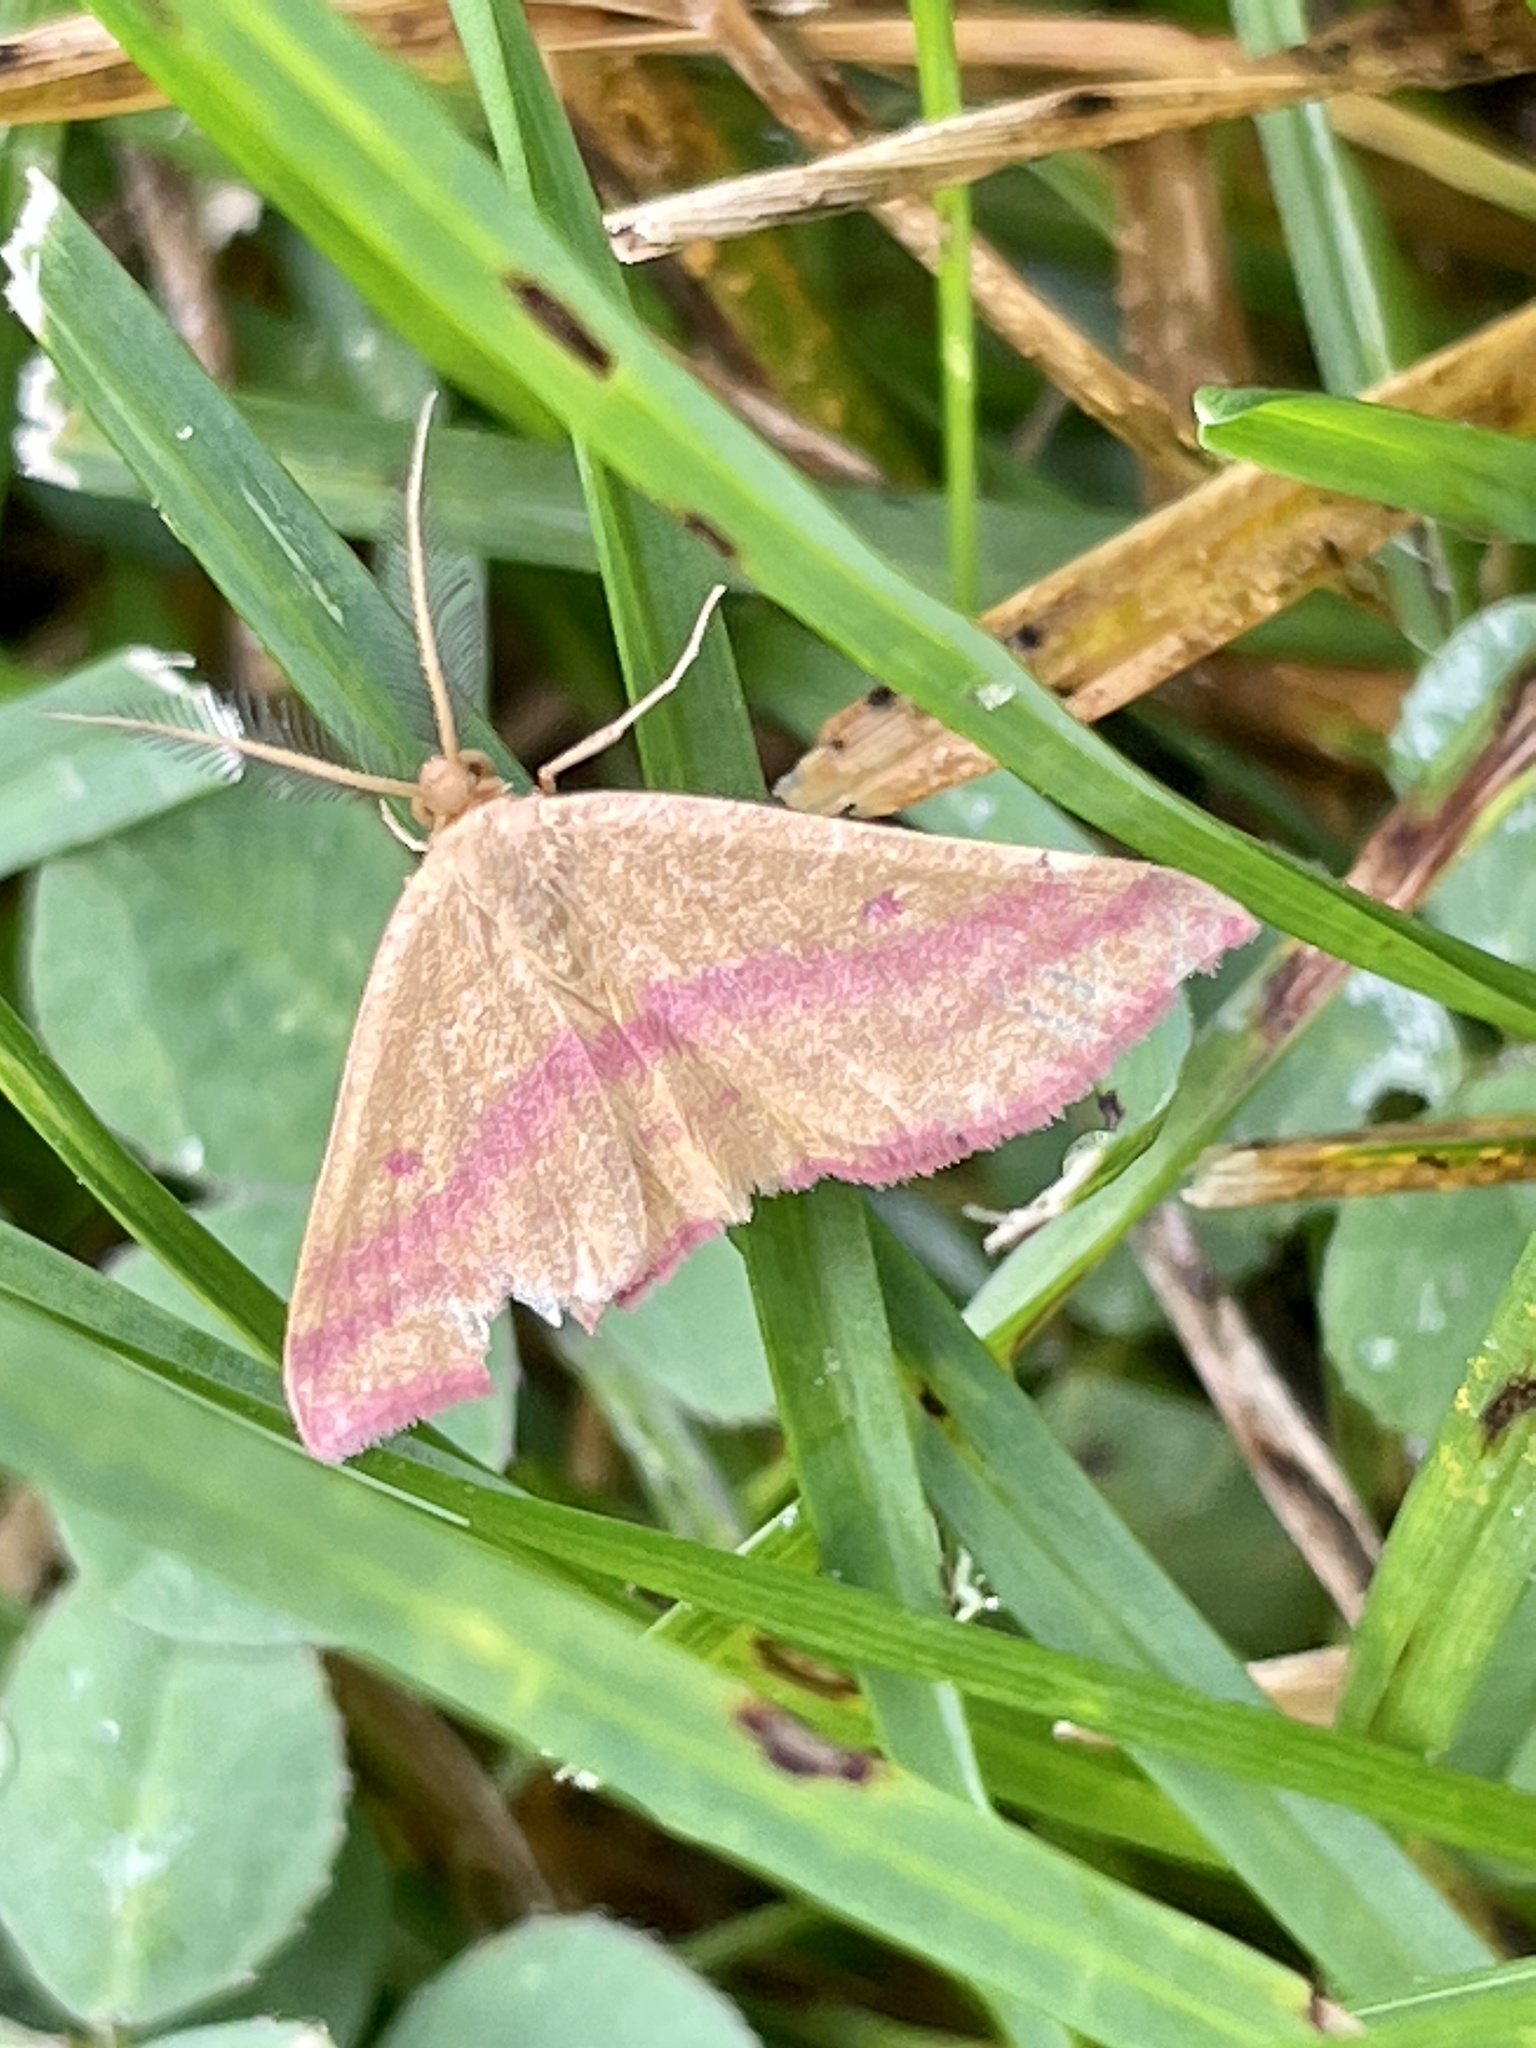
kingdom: Animalia
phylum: Arthropoda
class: Insecta
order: Lepidoptera
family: Geometridae
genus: Haematopis
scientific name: Haematopis grataria
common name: Chickweed geometer
